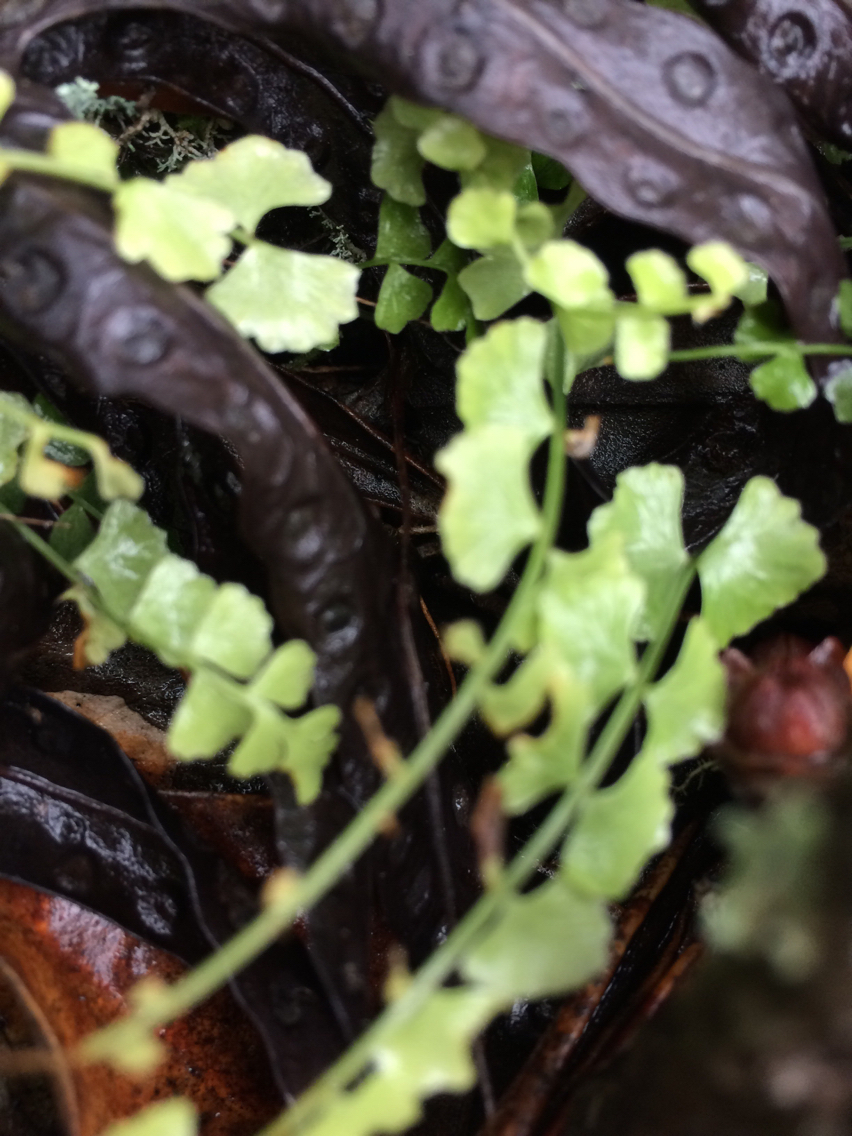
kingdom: Plantae
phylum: Tracheophyta
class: Polypodiopsida
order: Polypodiales
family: Aspleniaceae
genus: Asplenium
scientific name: Asplenium flabellifolium
